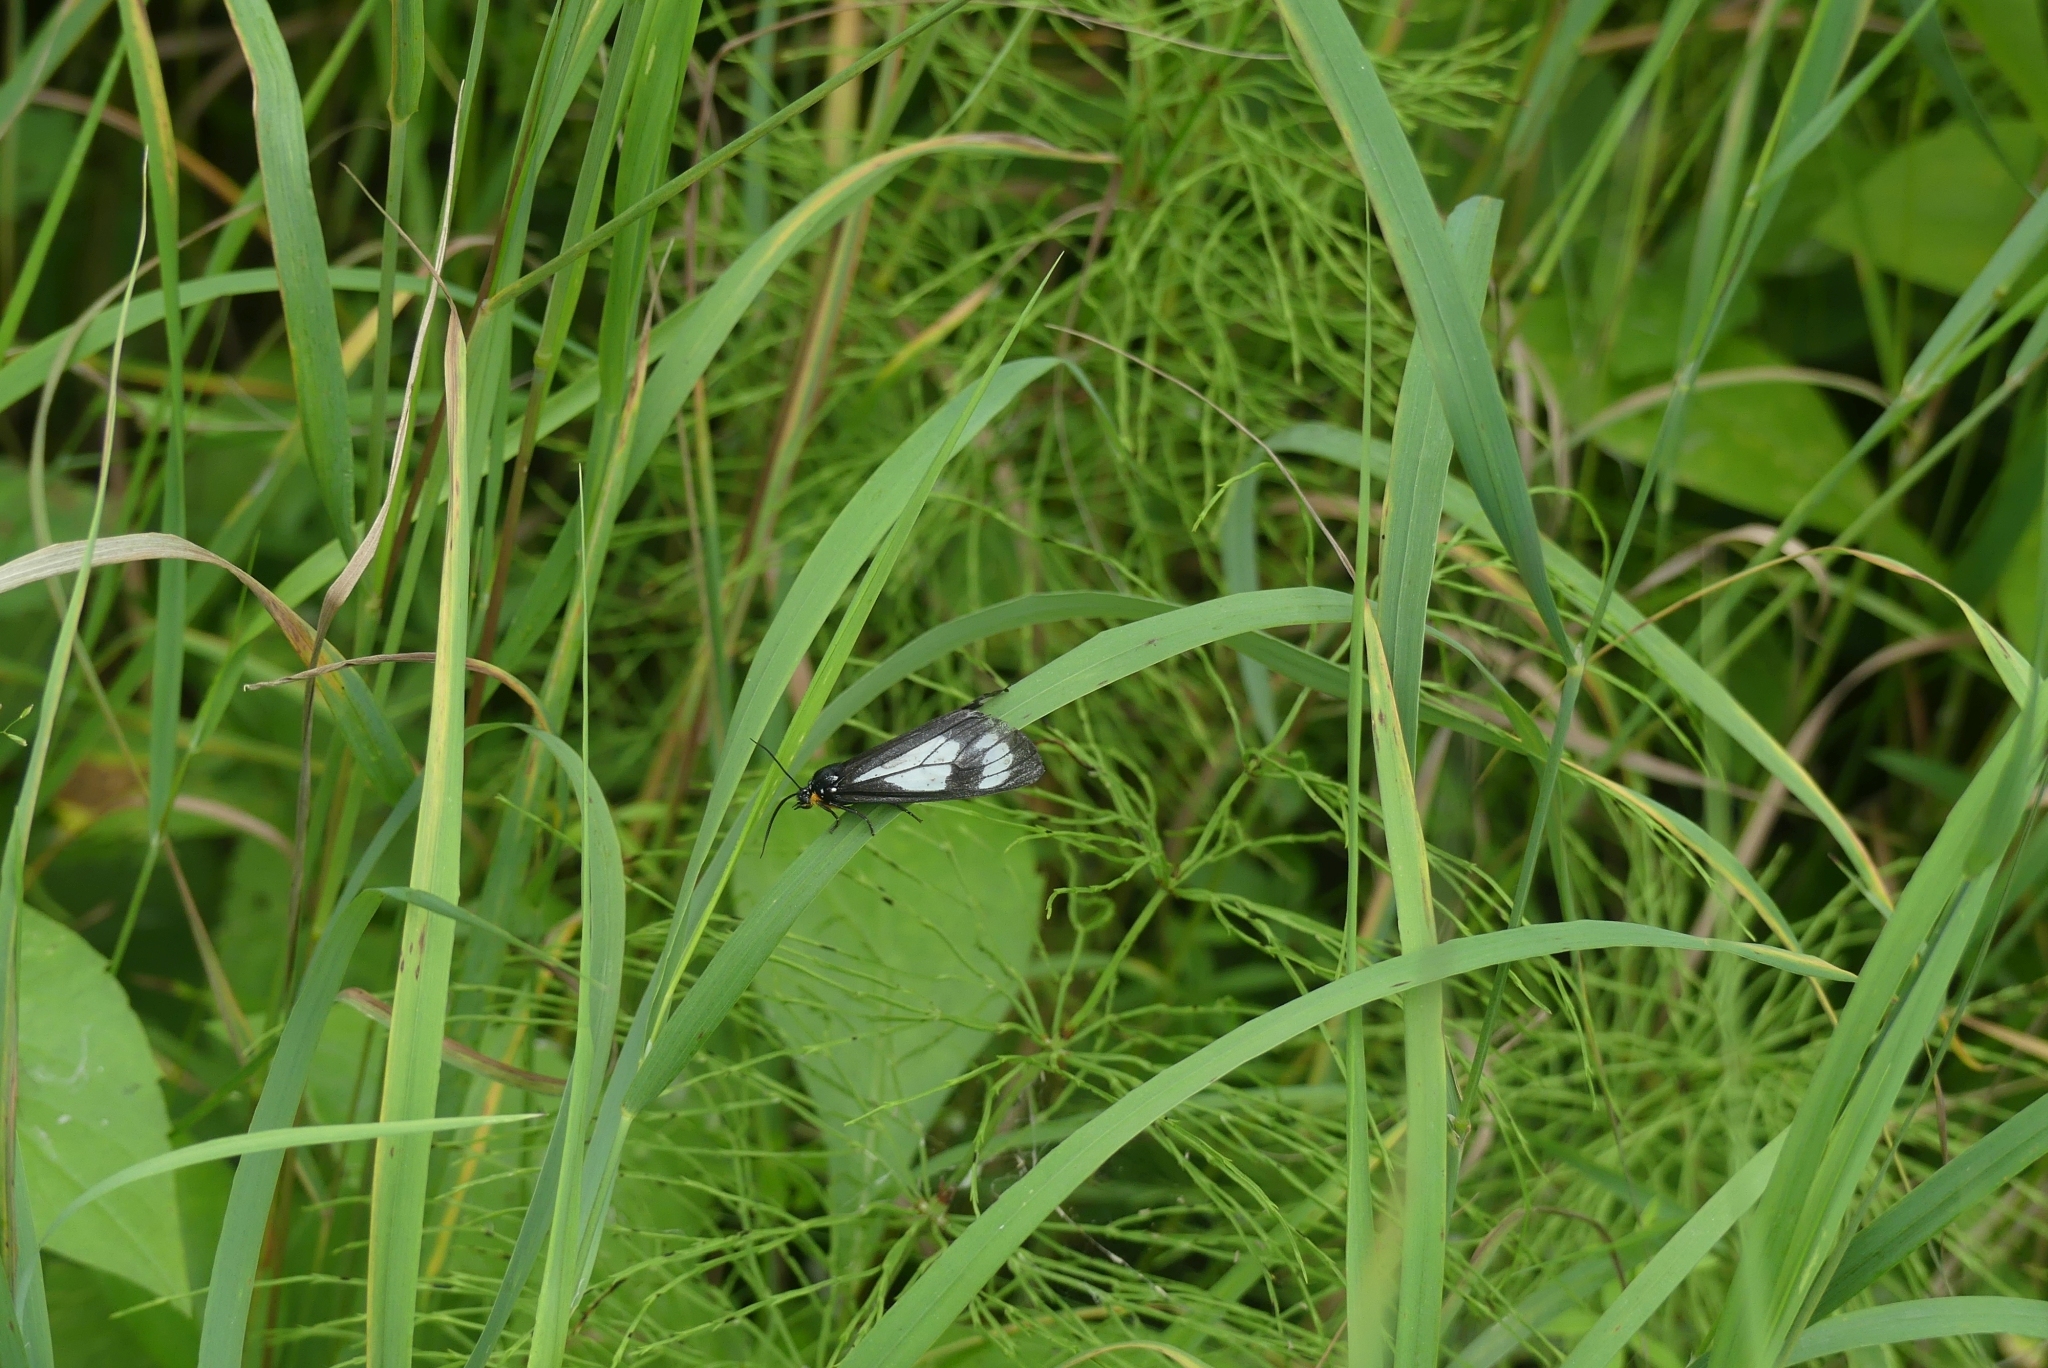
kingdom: Animalia
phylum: Arthropoda
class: Insecta
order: Lepidoptera
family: Erebidae
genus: Gnophaela
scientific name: Gnophaela vermiculata
